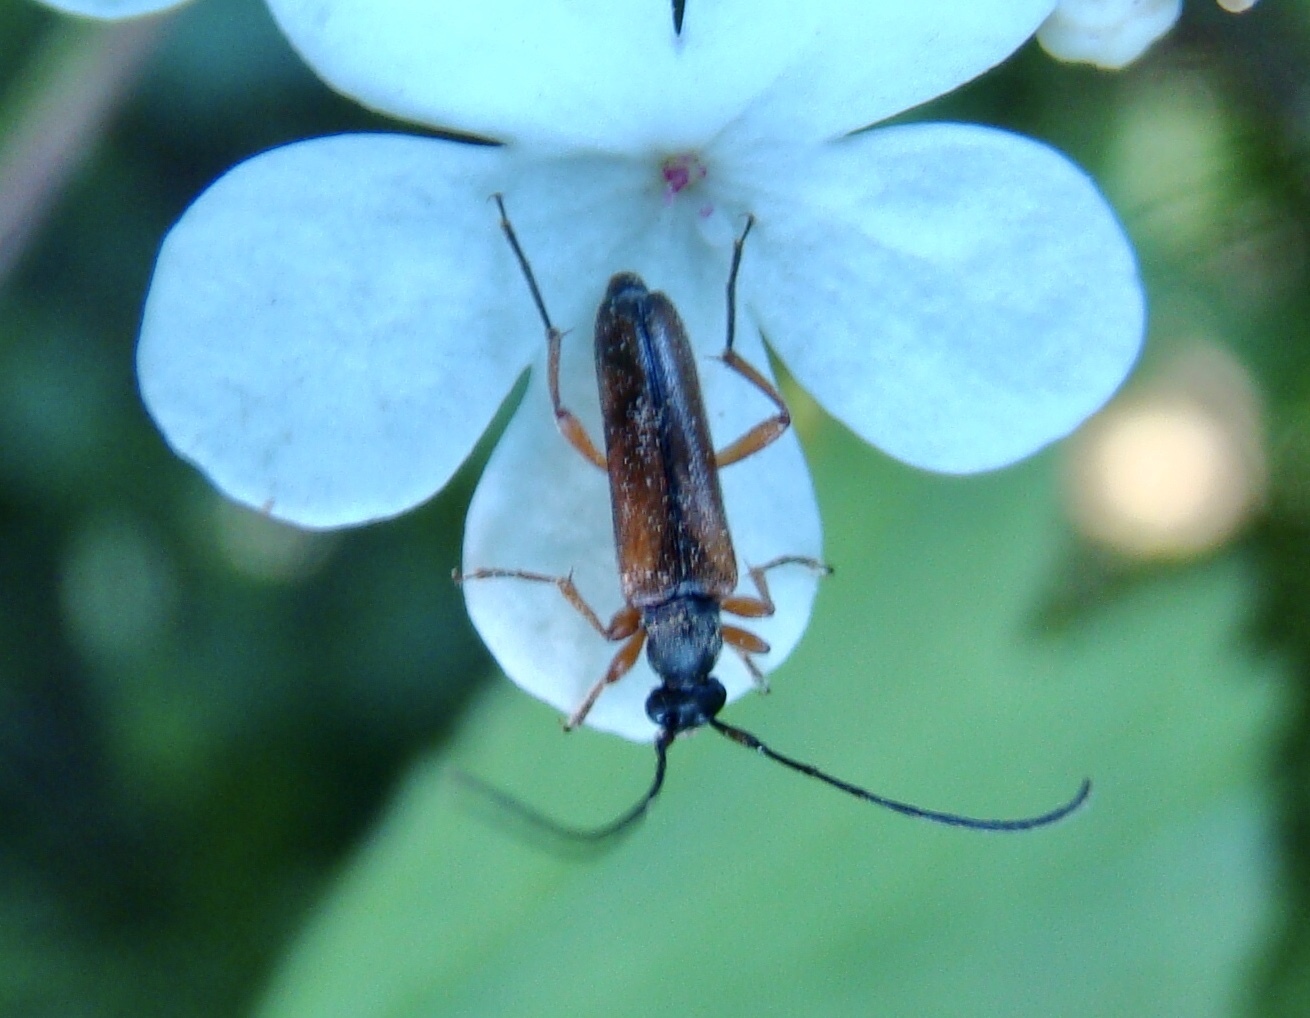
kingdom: Animalia
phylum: Arthropoda
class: Insecta
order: Coleoptera
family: Cerambycidae
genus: Alosterna
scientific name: Alosterna tabacicolor
